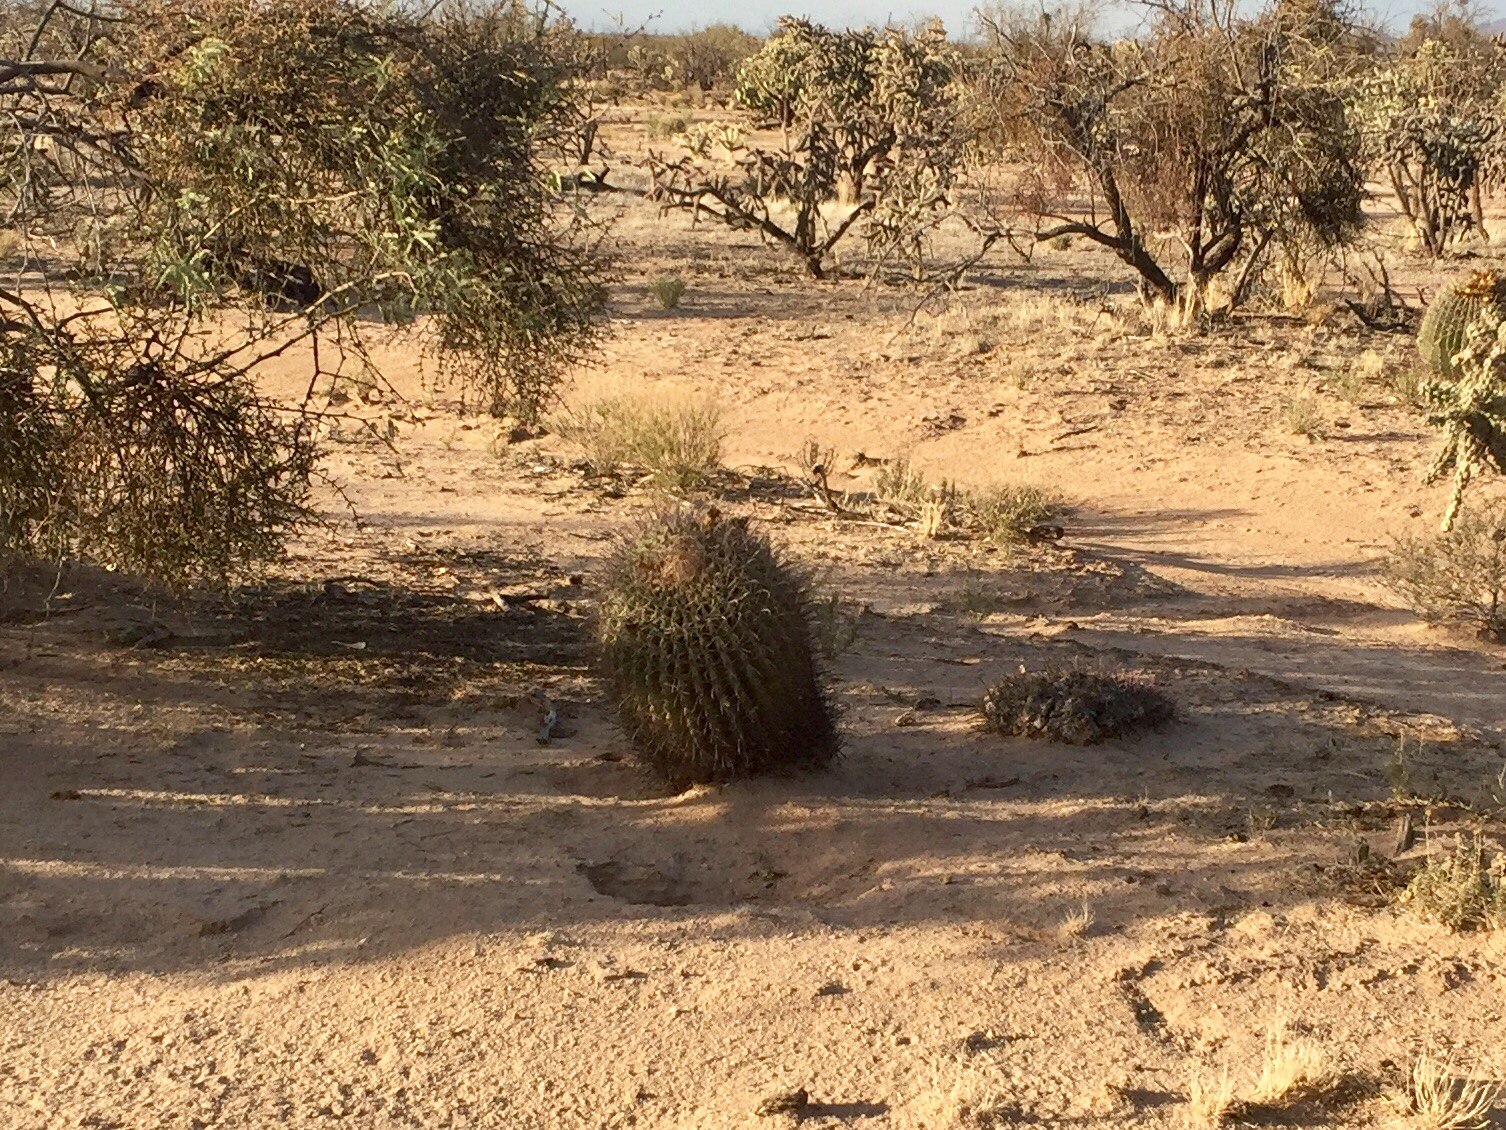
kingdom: Plantae
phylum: Tracheophyta
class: Magnoliopsida
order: Caryophyllales
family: Cactaceae
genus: Ferocactus
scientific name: Ferocactus wislizeni
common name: Candy barrel cactus
